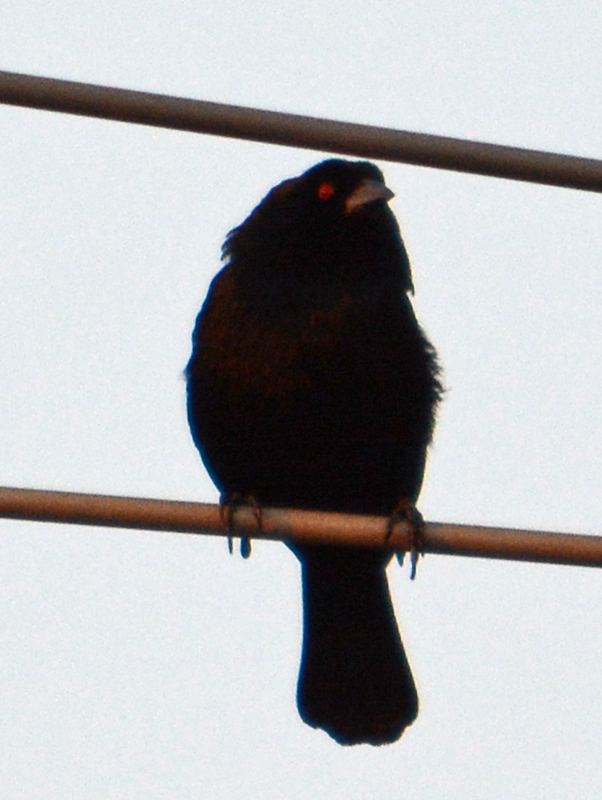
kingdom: Animalia
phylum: Chordata
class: Aves
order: Passeriformes
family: Icteridae
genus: Molothrus
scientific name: Molothrus aeneus
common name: Bronzed cowbird
